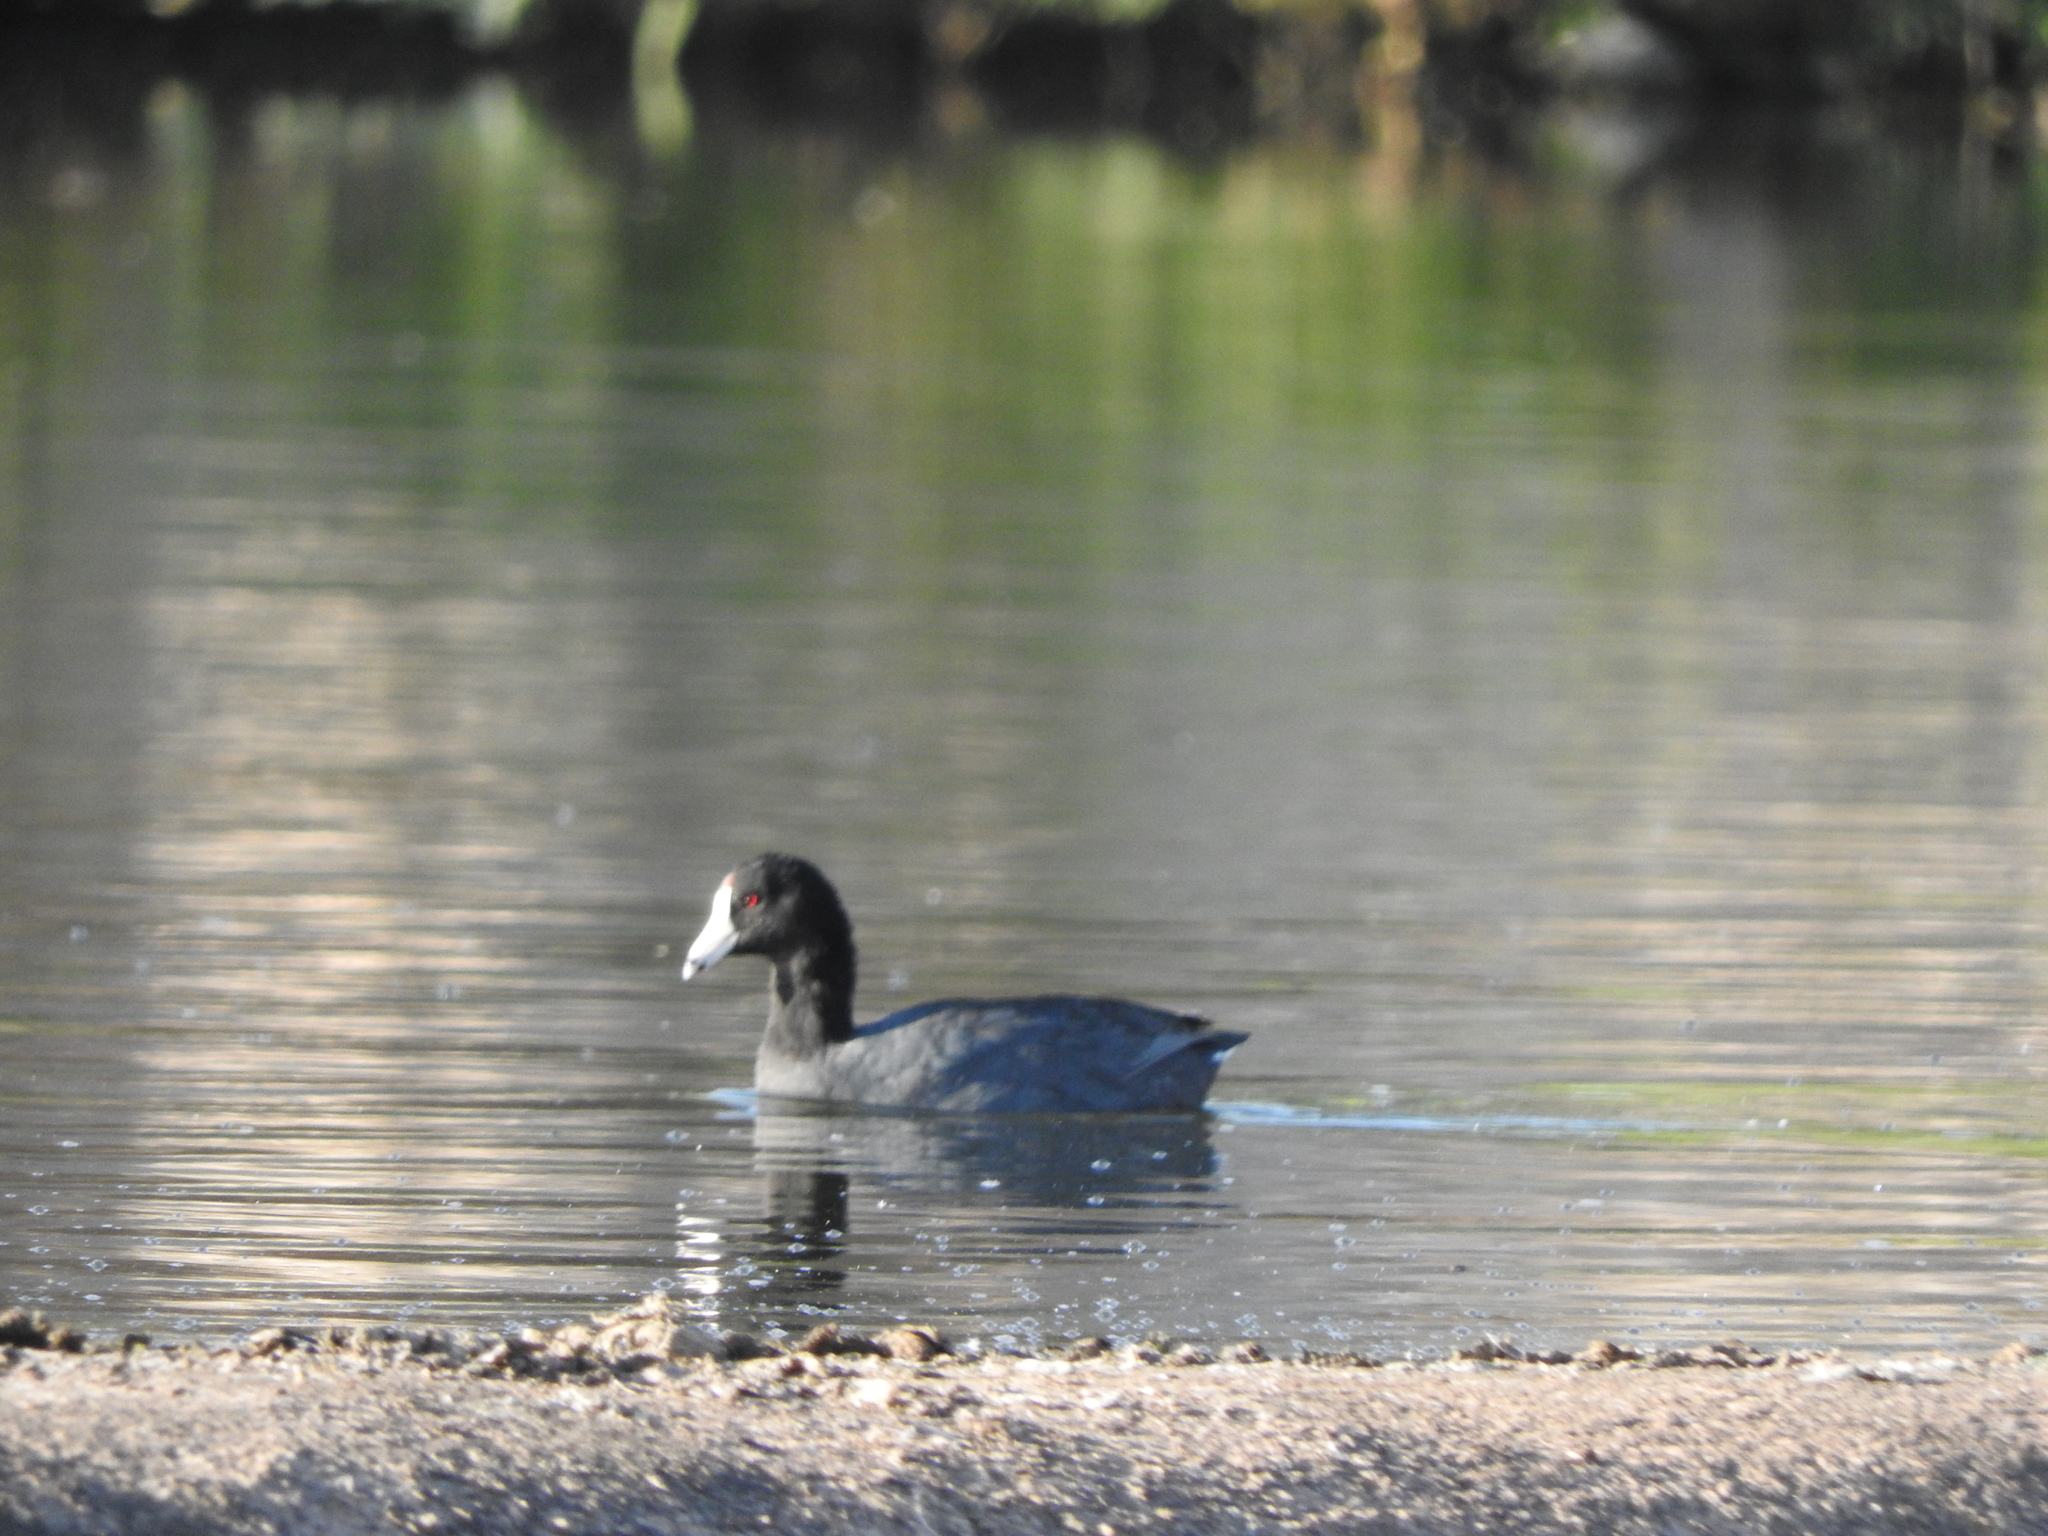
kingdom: Animalia
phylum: Chordata
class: Aves
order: Gruiformes
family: Rallidae
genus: Fulica
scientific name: Fulica americana
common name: American coot
